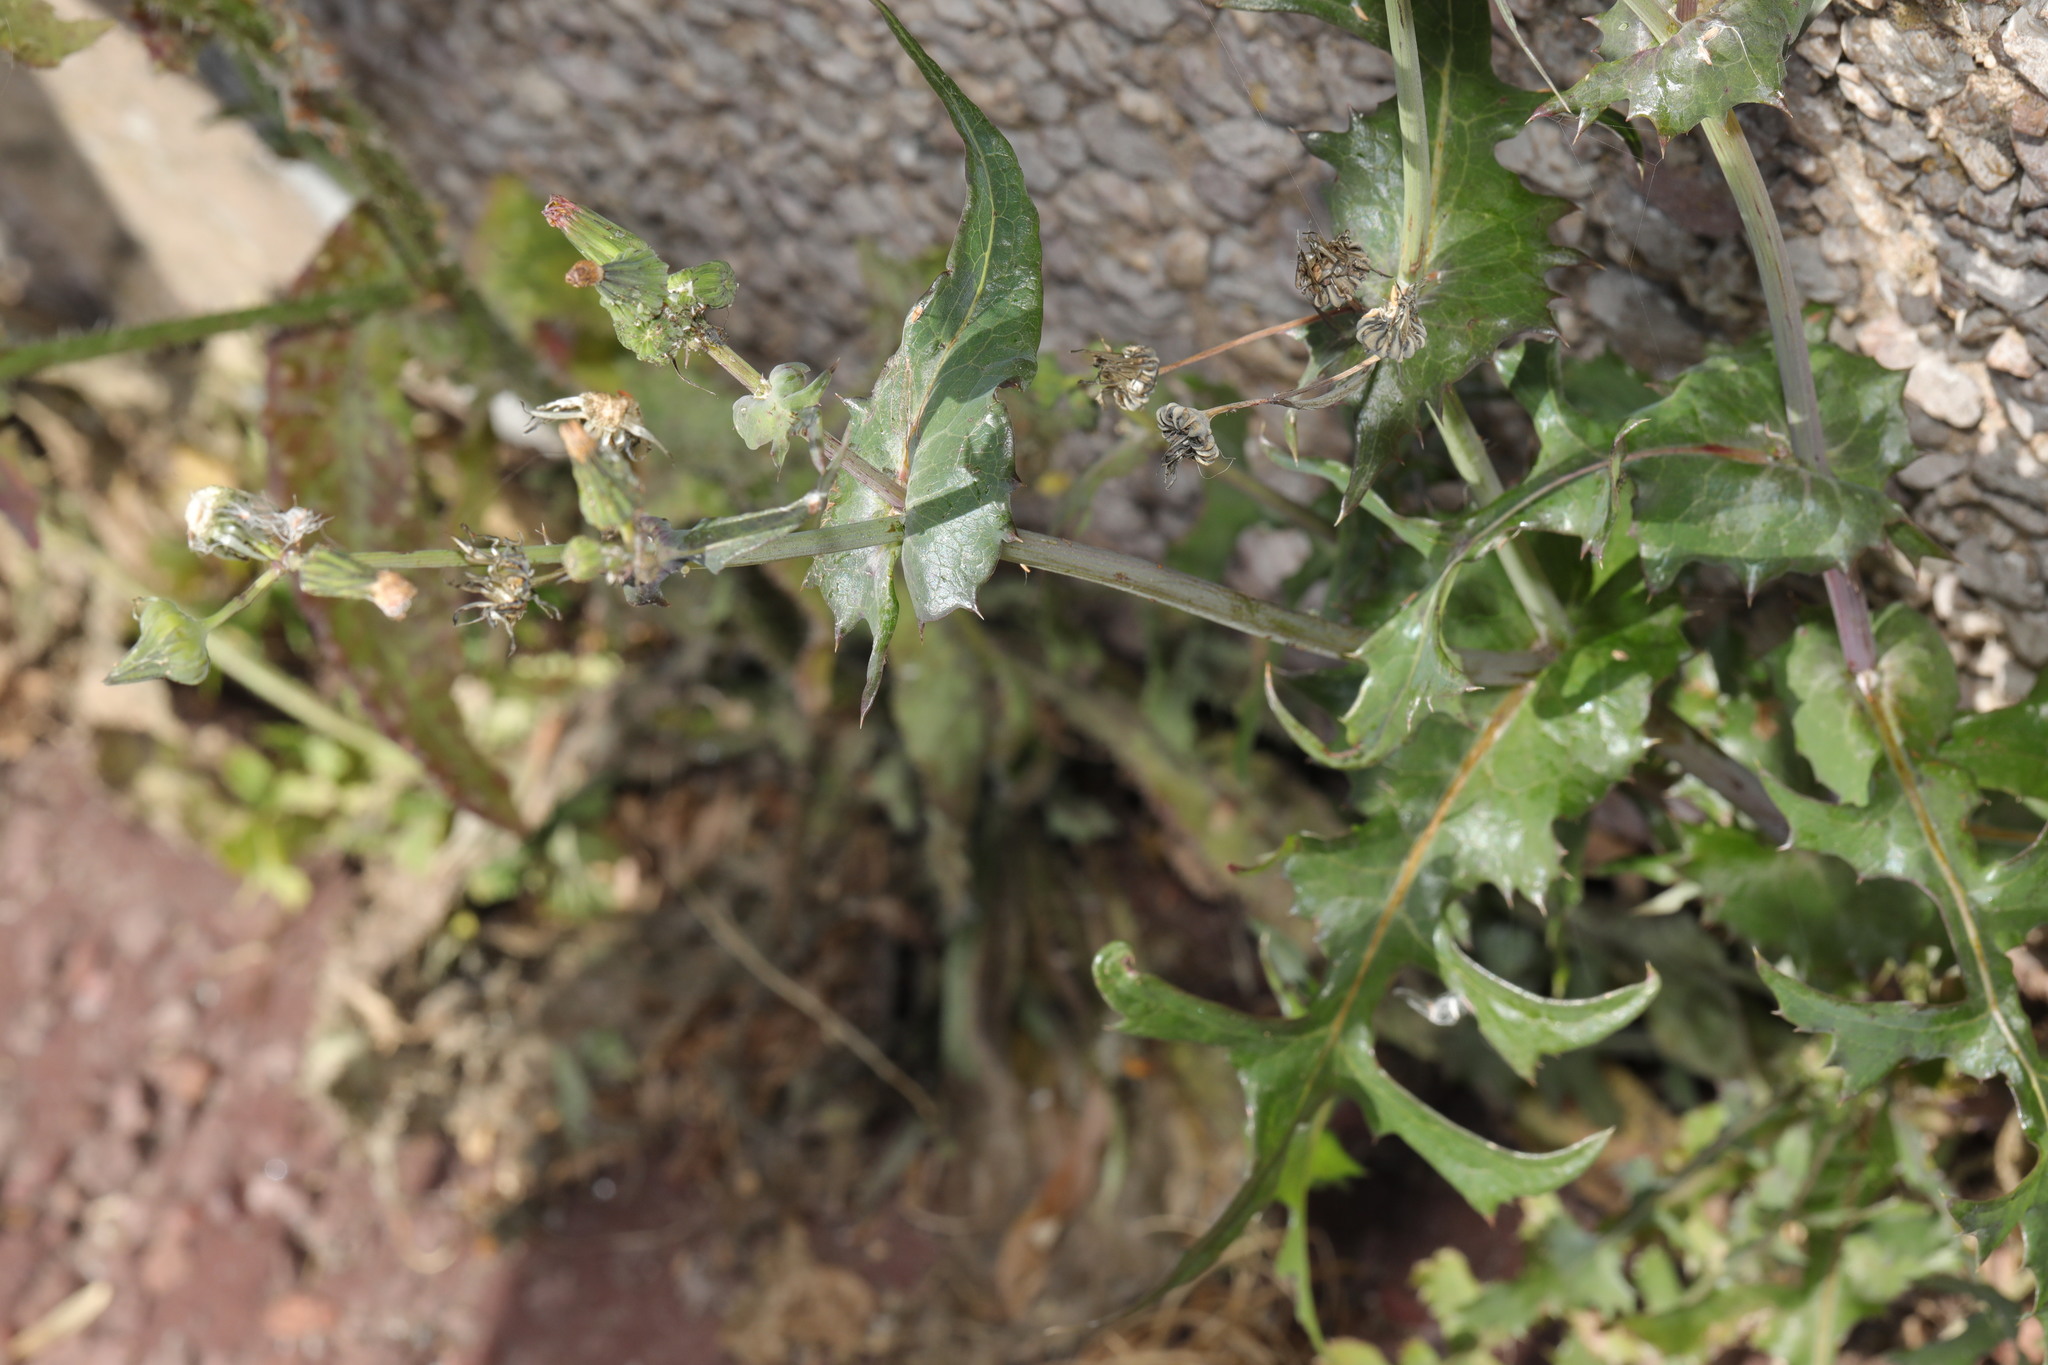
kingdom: Plantae
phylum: Tracheophyta
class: Magnoliopsida
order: Asterales
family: Asteraceae
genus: Sonchus
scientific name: Sonchus oleraceus
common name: Common sowthistle
